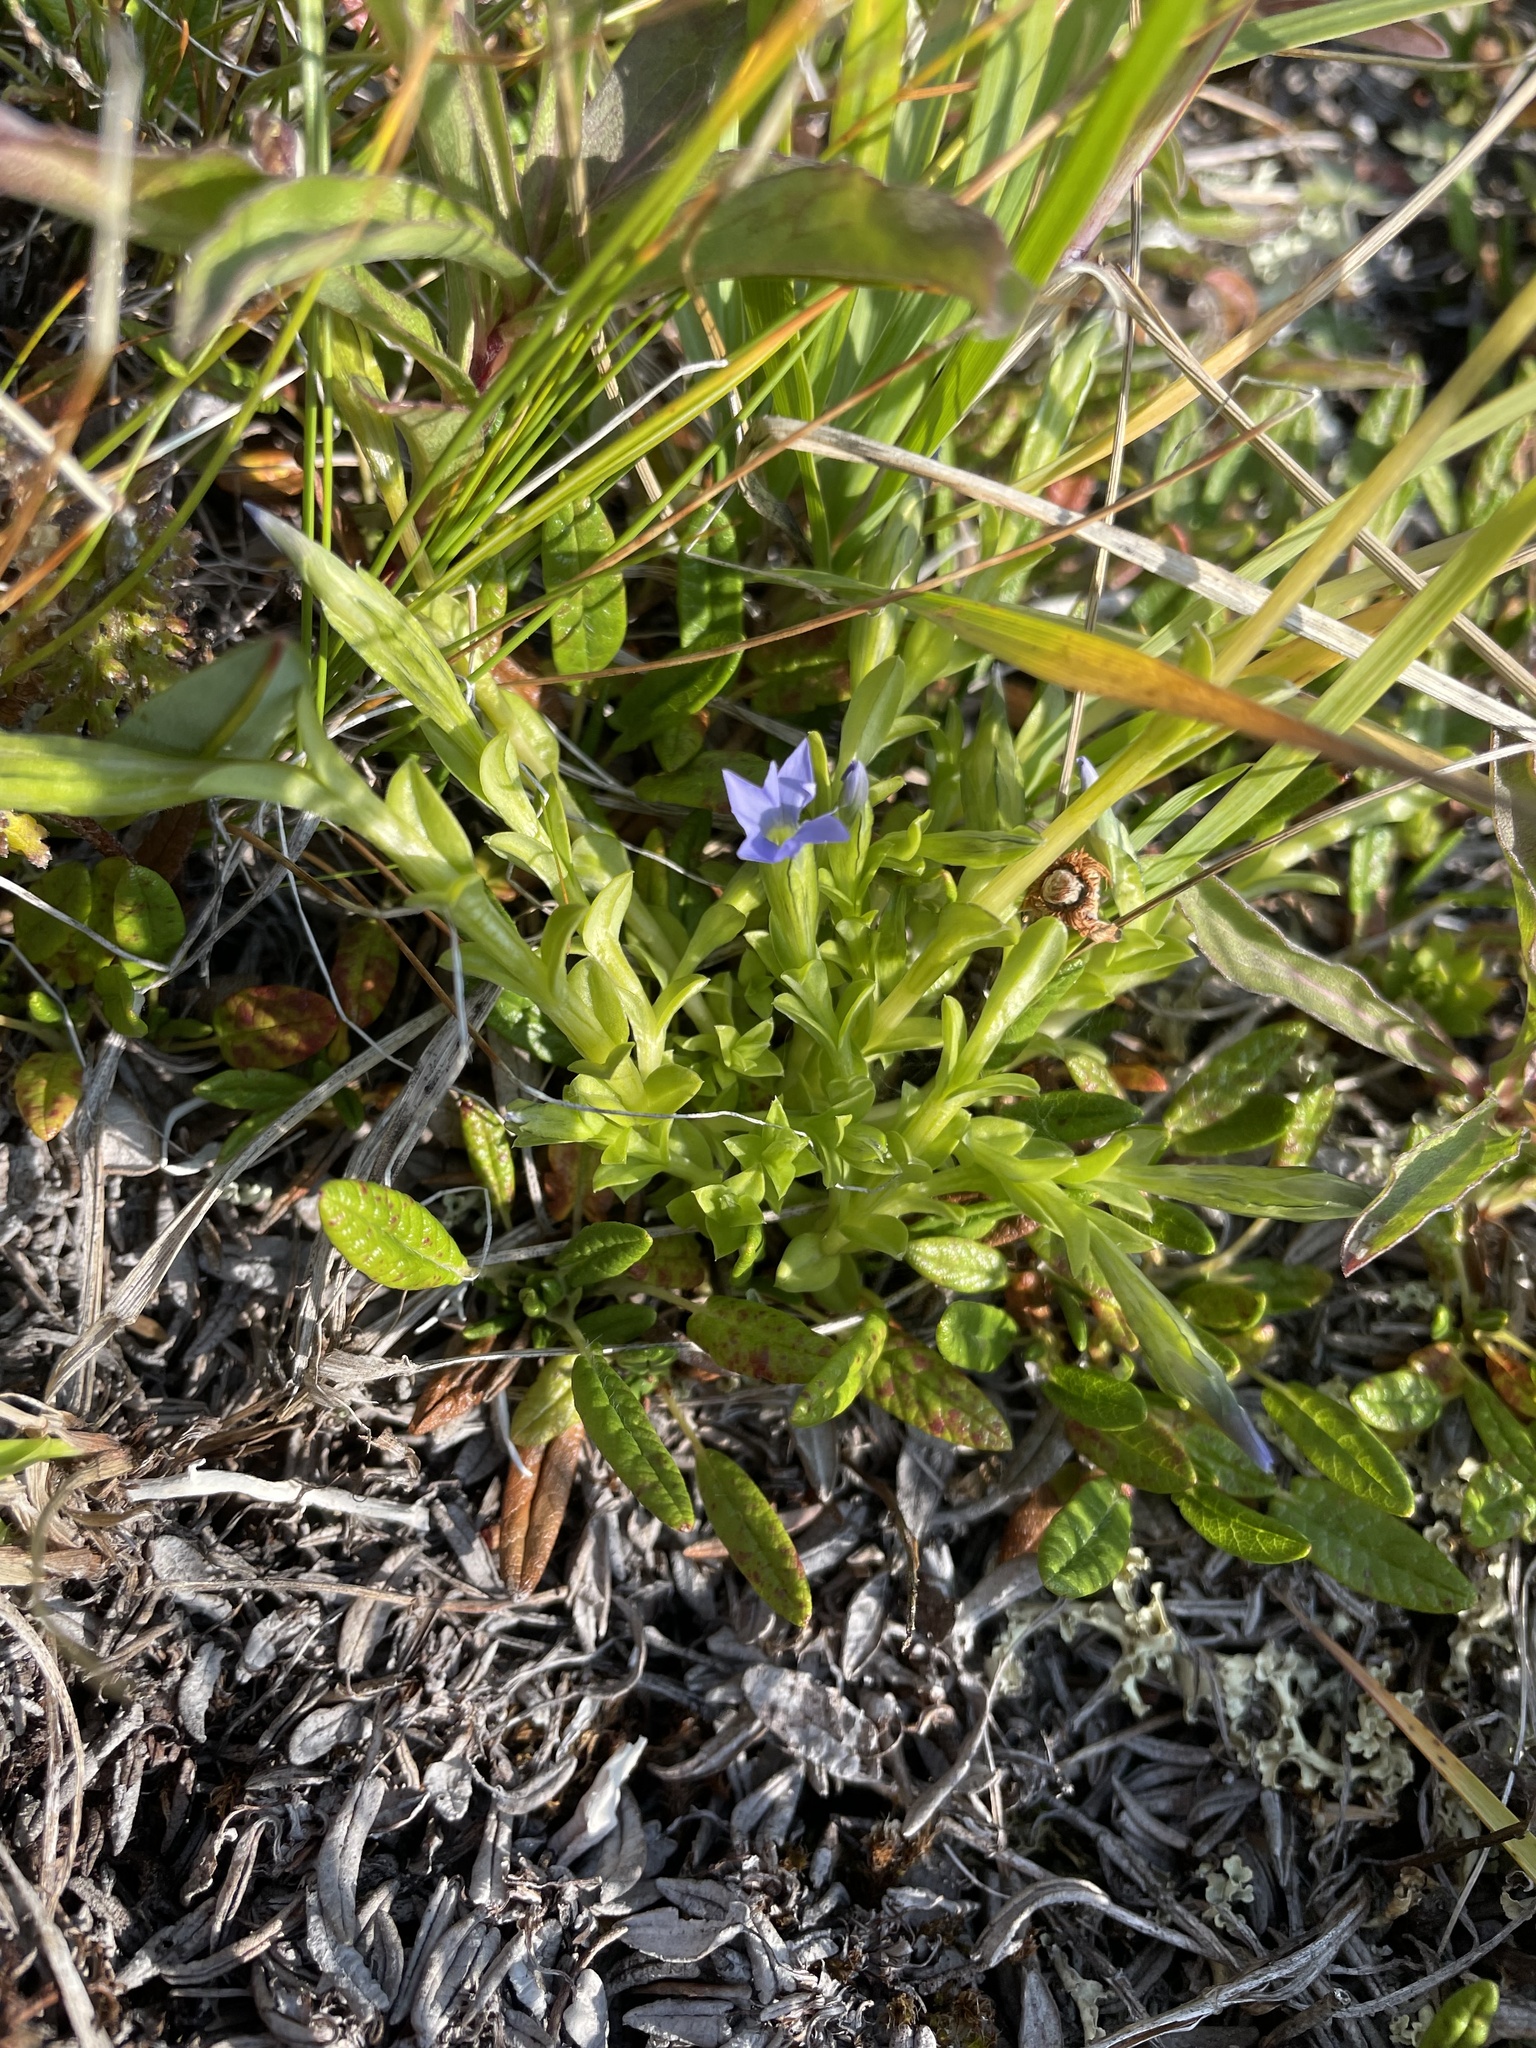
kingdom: Plantae
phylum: Tracheophyta
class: Magnoliopsida
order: Gentianales
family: Gentianaceae
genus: Gentiana
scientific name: Gentiana prostrata
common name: Moss gentian
